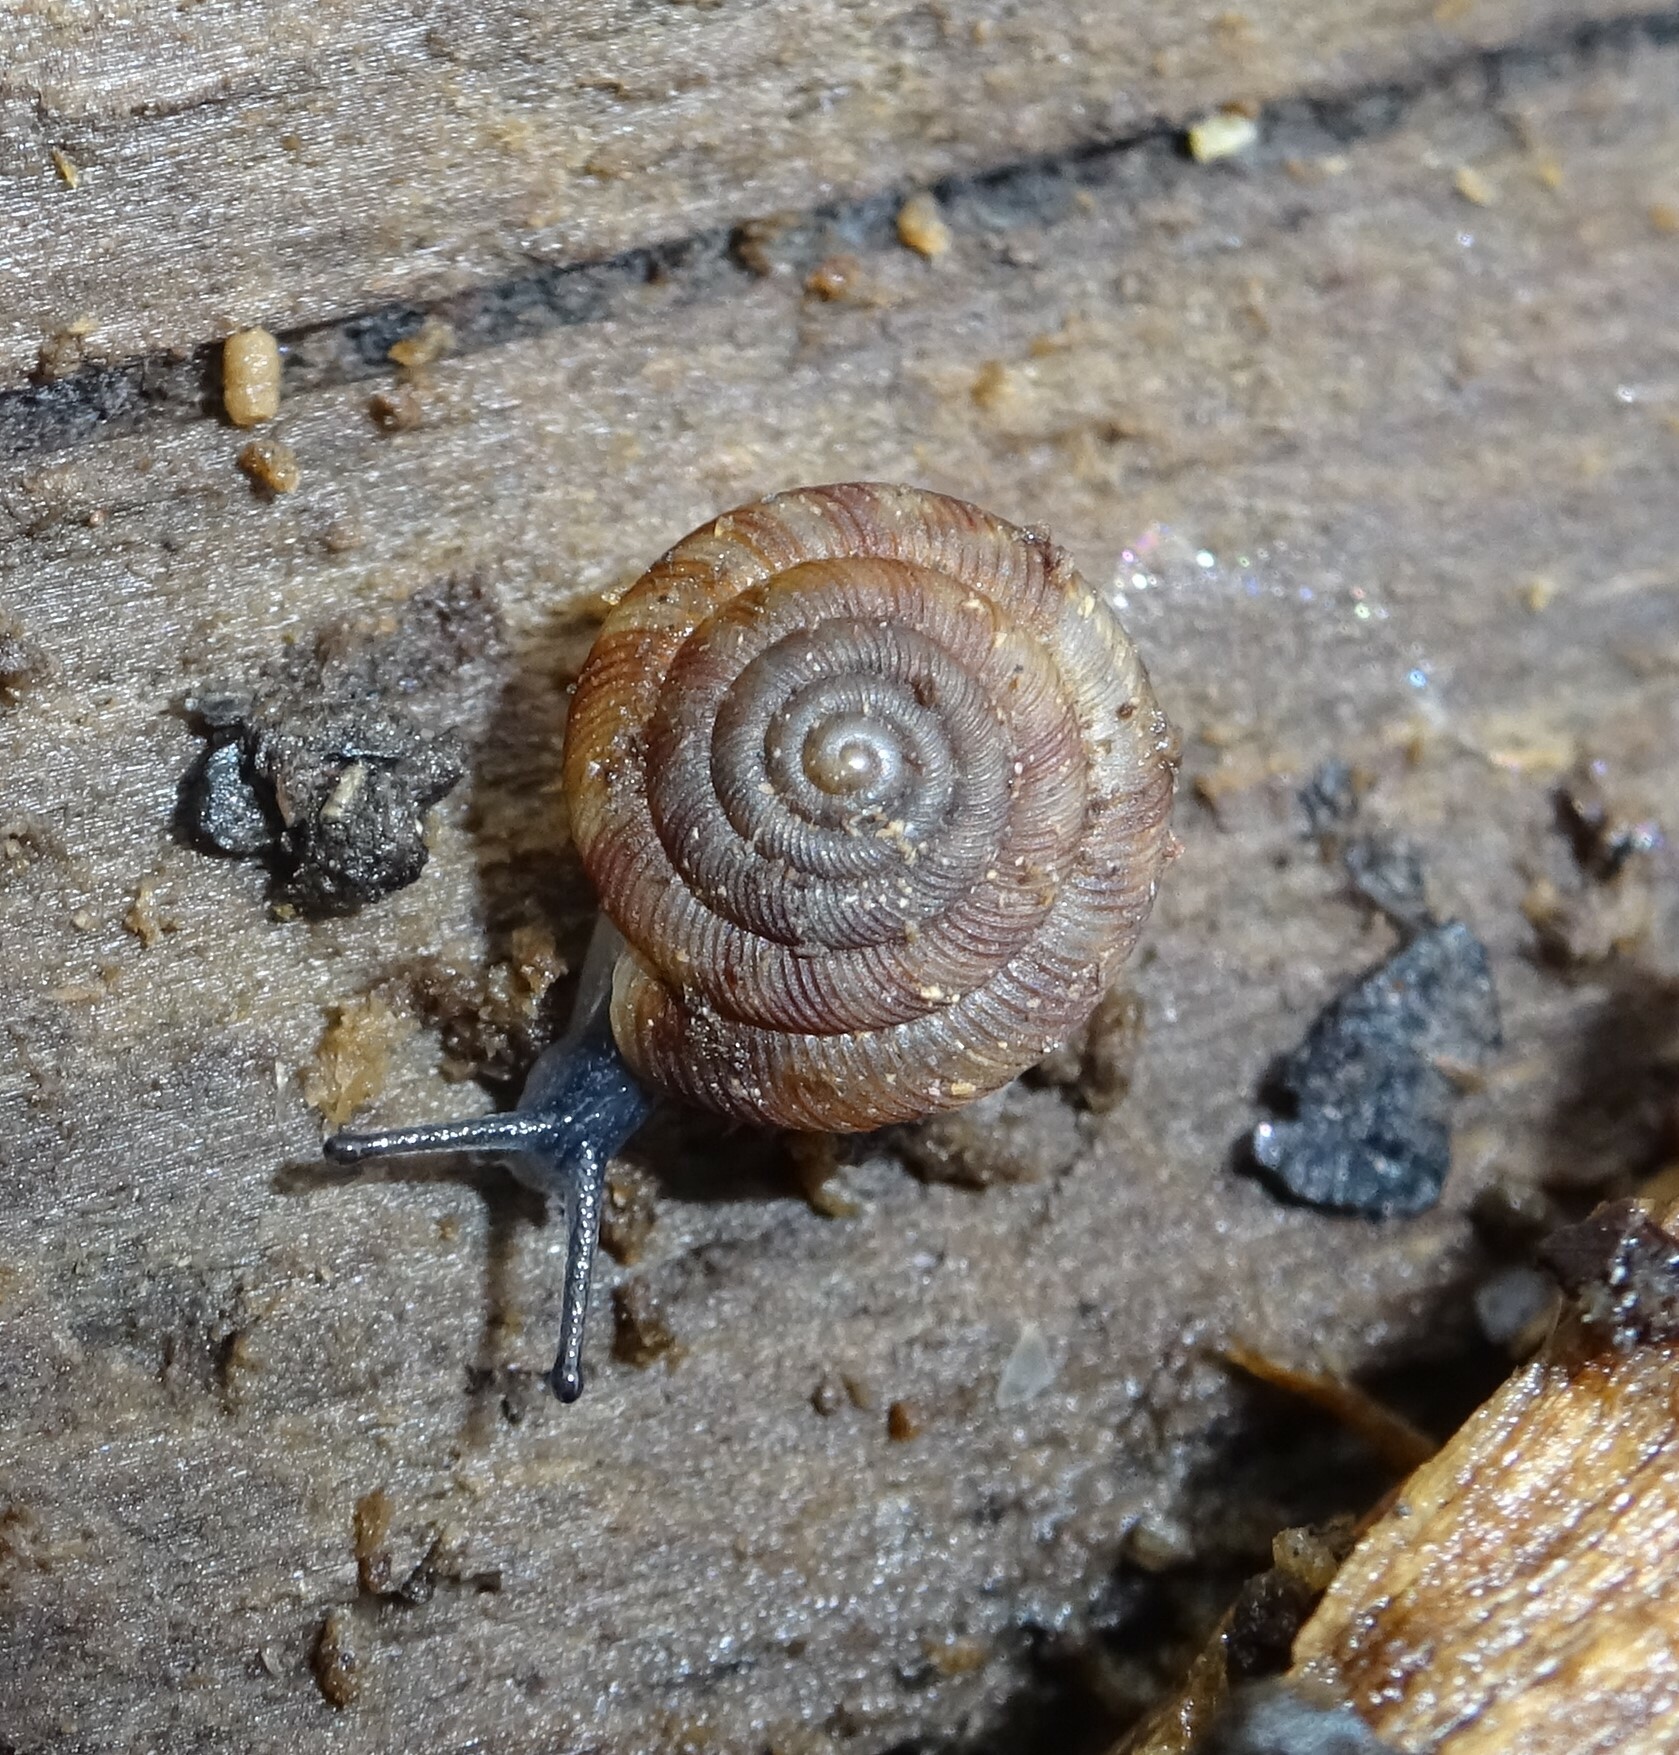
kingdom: Animalia
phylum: Mollusca
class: Gastropoda
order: Stylommatophora
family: Discidae
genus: Discus
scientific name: Discus rotundatus
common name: Rounded snail
